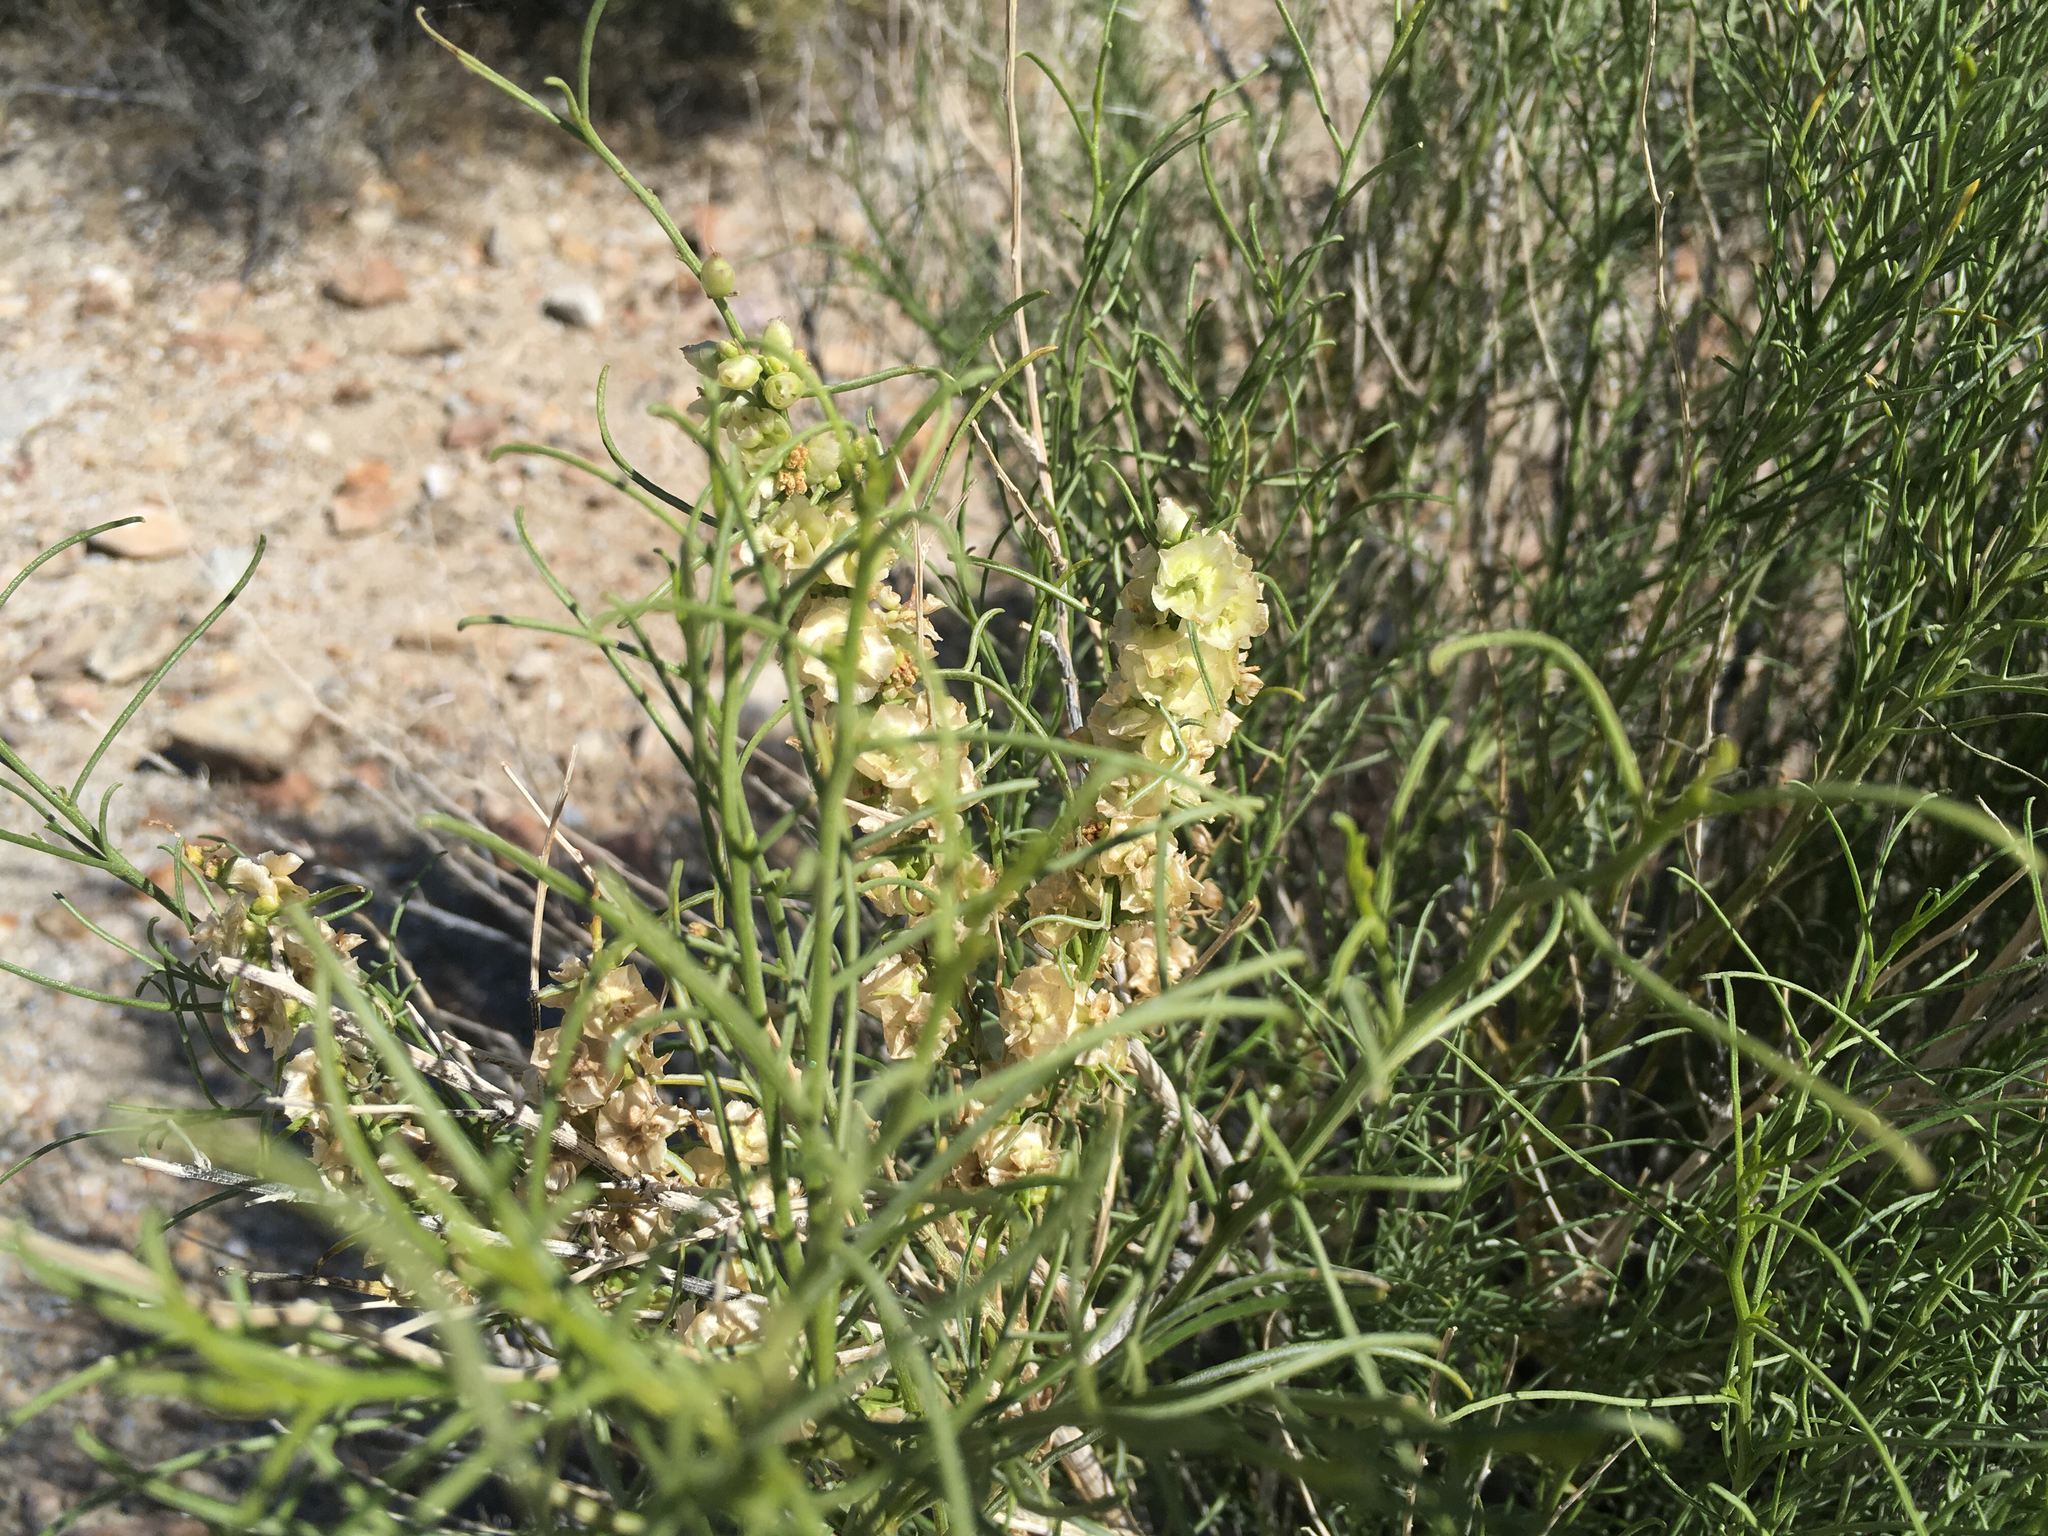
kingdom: Plantae
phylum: Tracheophyta
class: Magnoliopsida
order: Asterales
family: Asteraceae
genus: Ambrosia
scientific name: Ambrosia salsola
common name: Burrobrush
